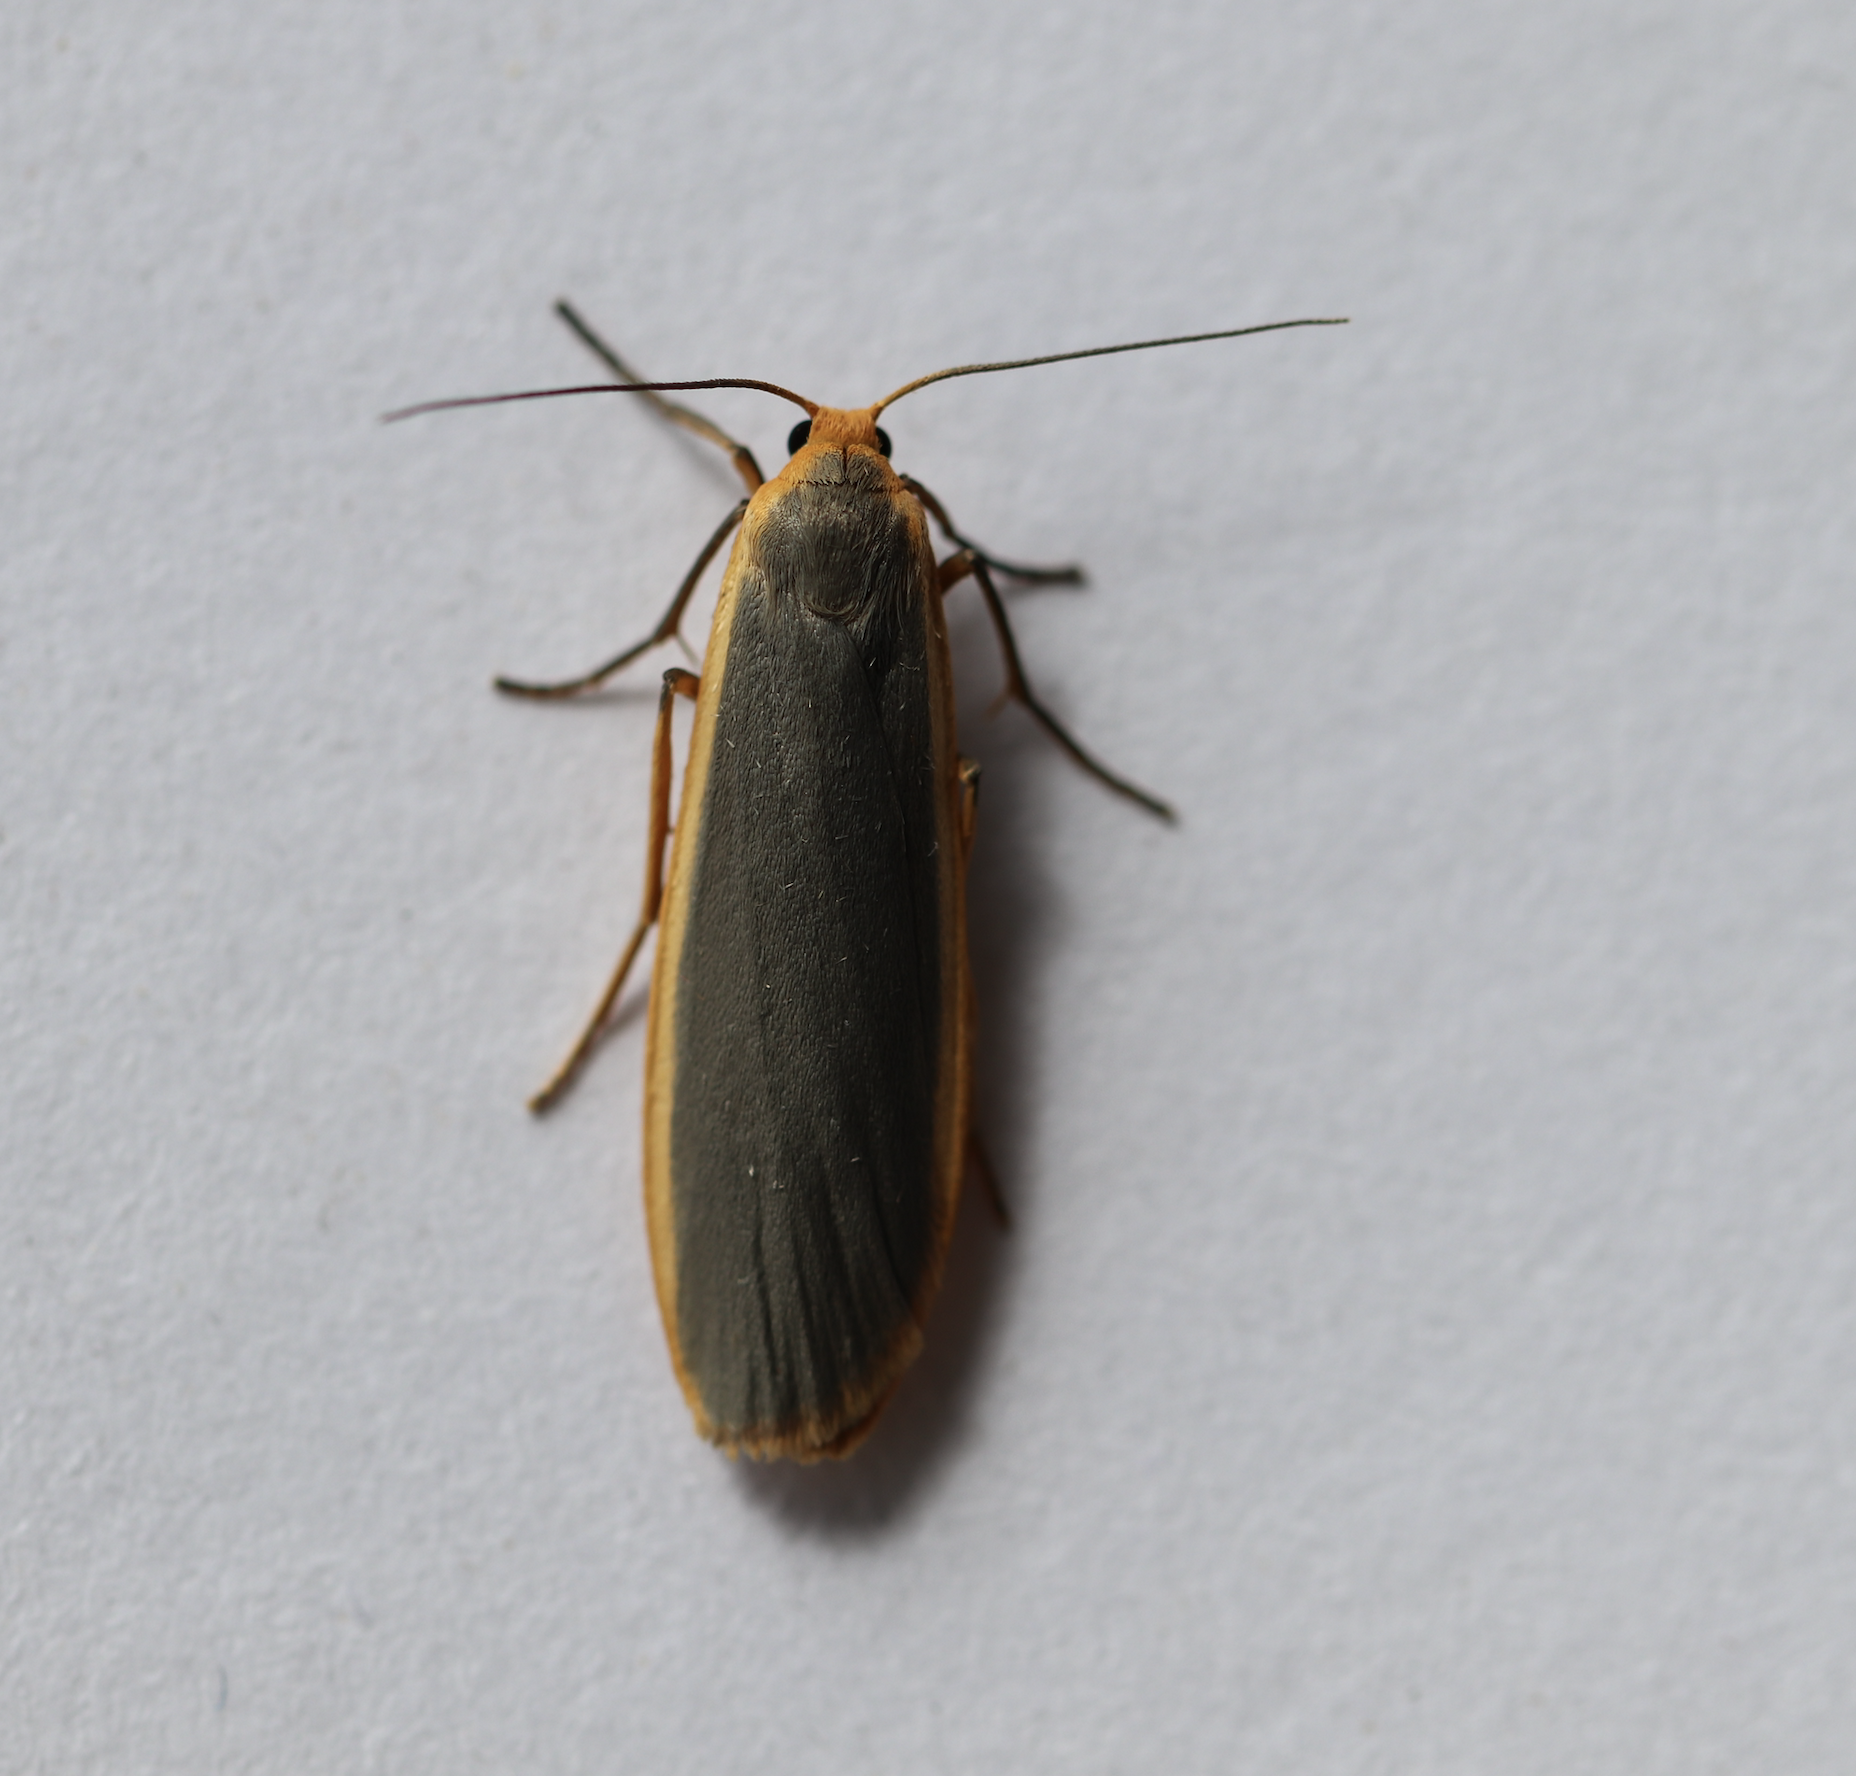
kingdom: Animalia
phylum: Arthropoda
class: Insecta
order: Lepidoptera
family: Erebidae
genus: Nyea
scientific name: Nyea lurideola
